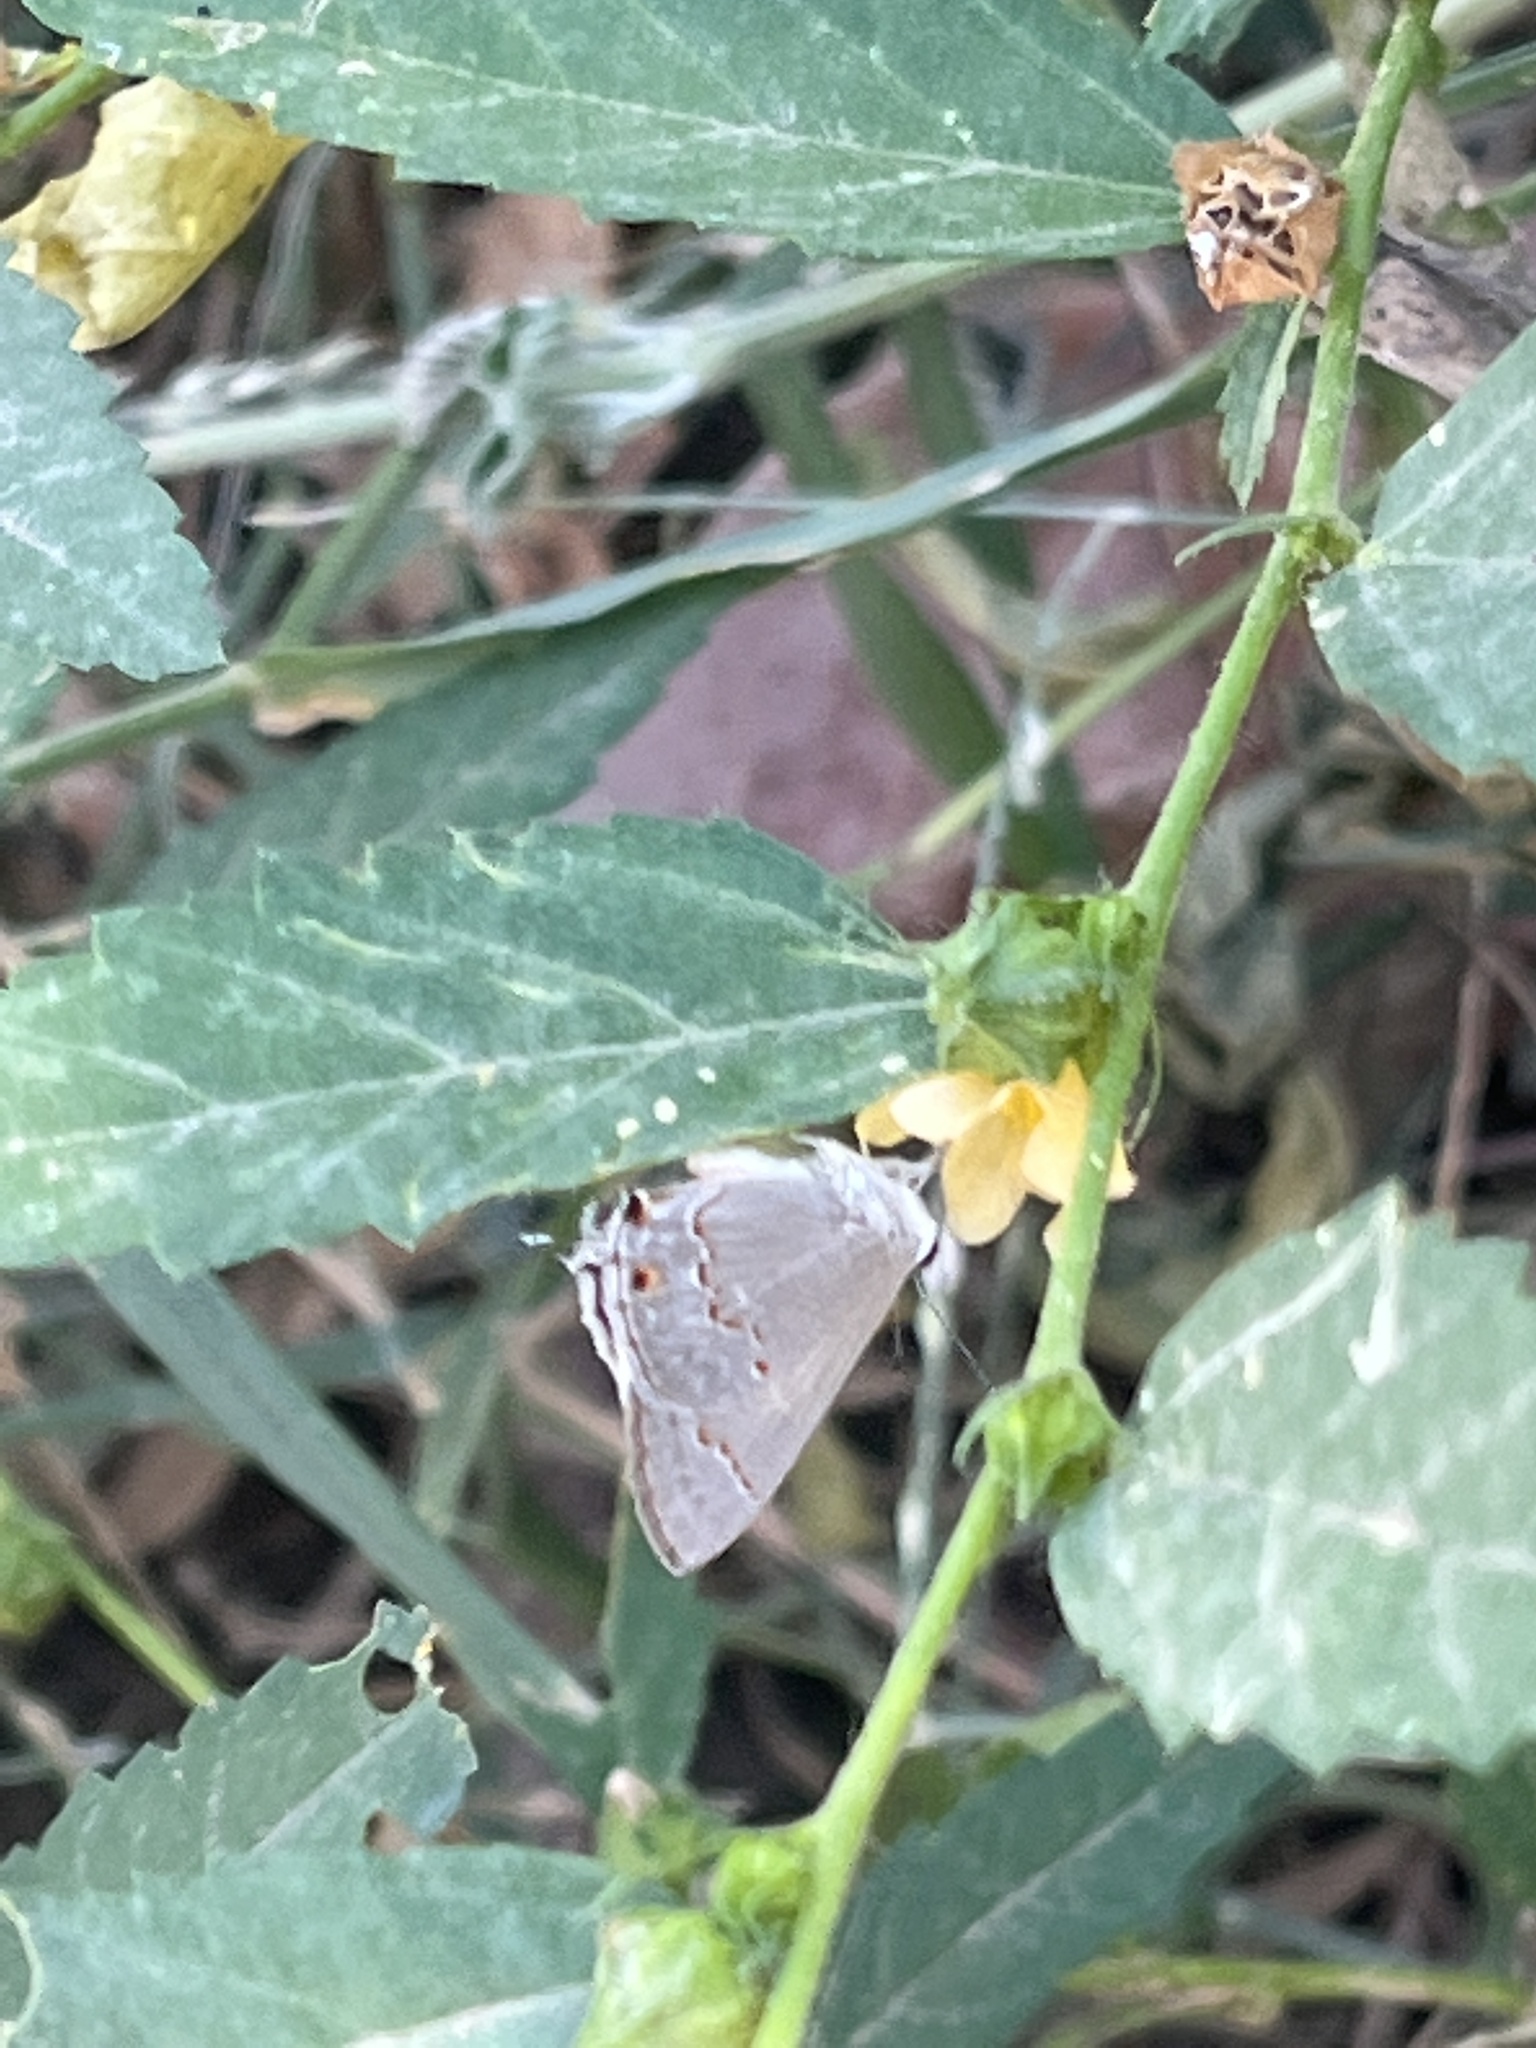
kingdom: Animalia
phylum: Arthropoda
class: Insecta
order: Lepidoptera
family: Lycaenidae
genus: Thecla
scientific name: Thecla rufofusca
